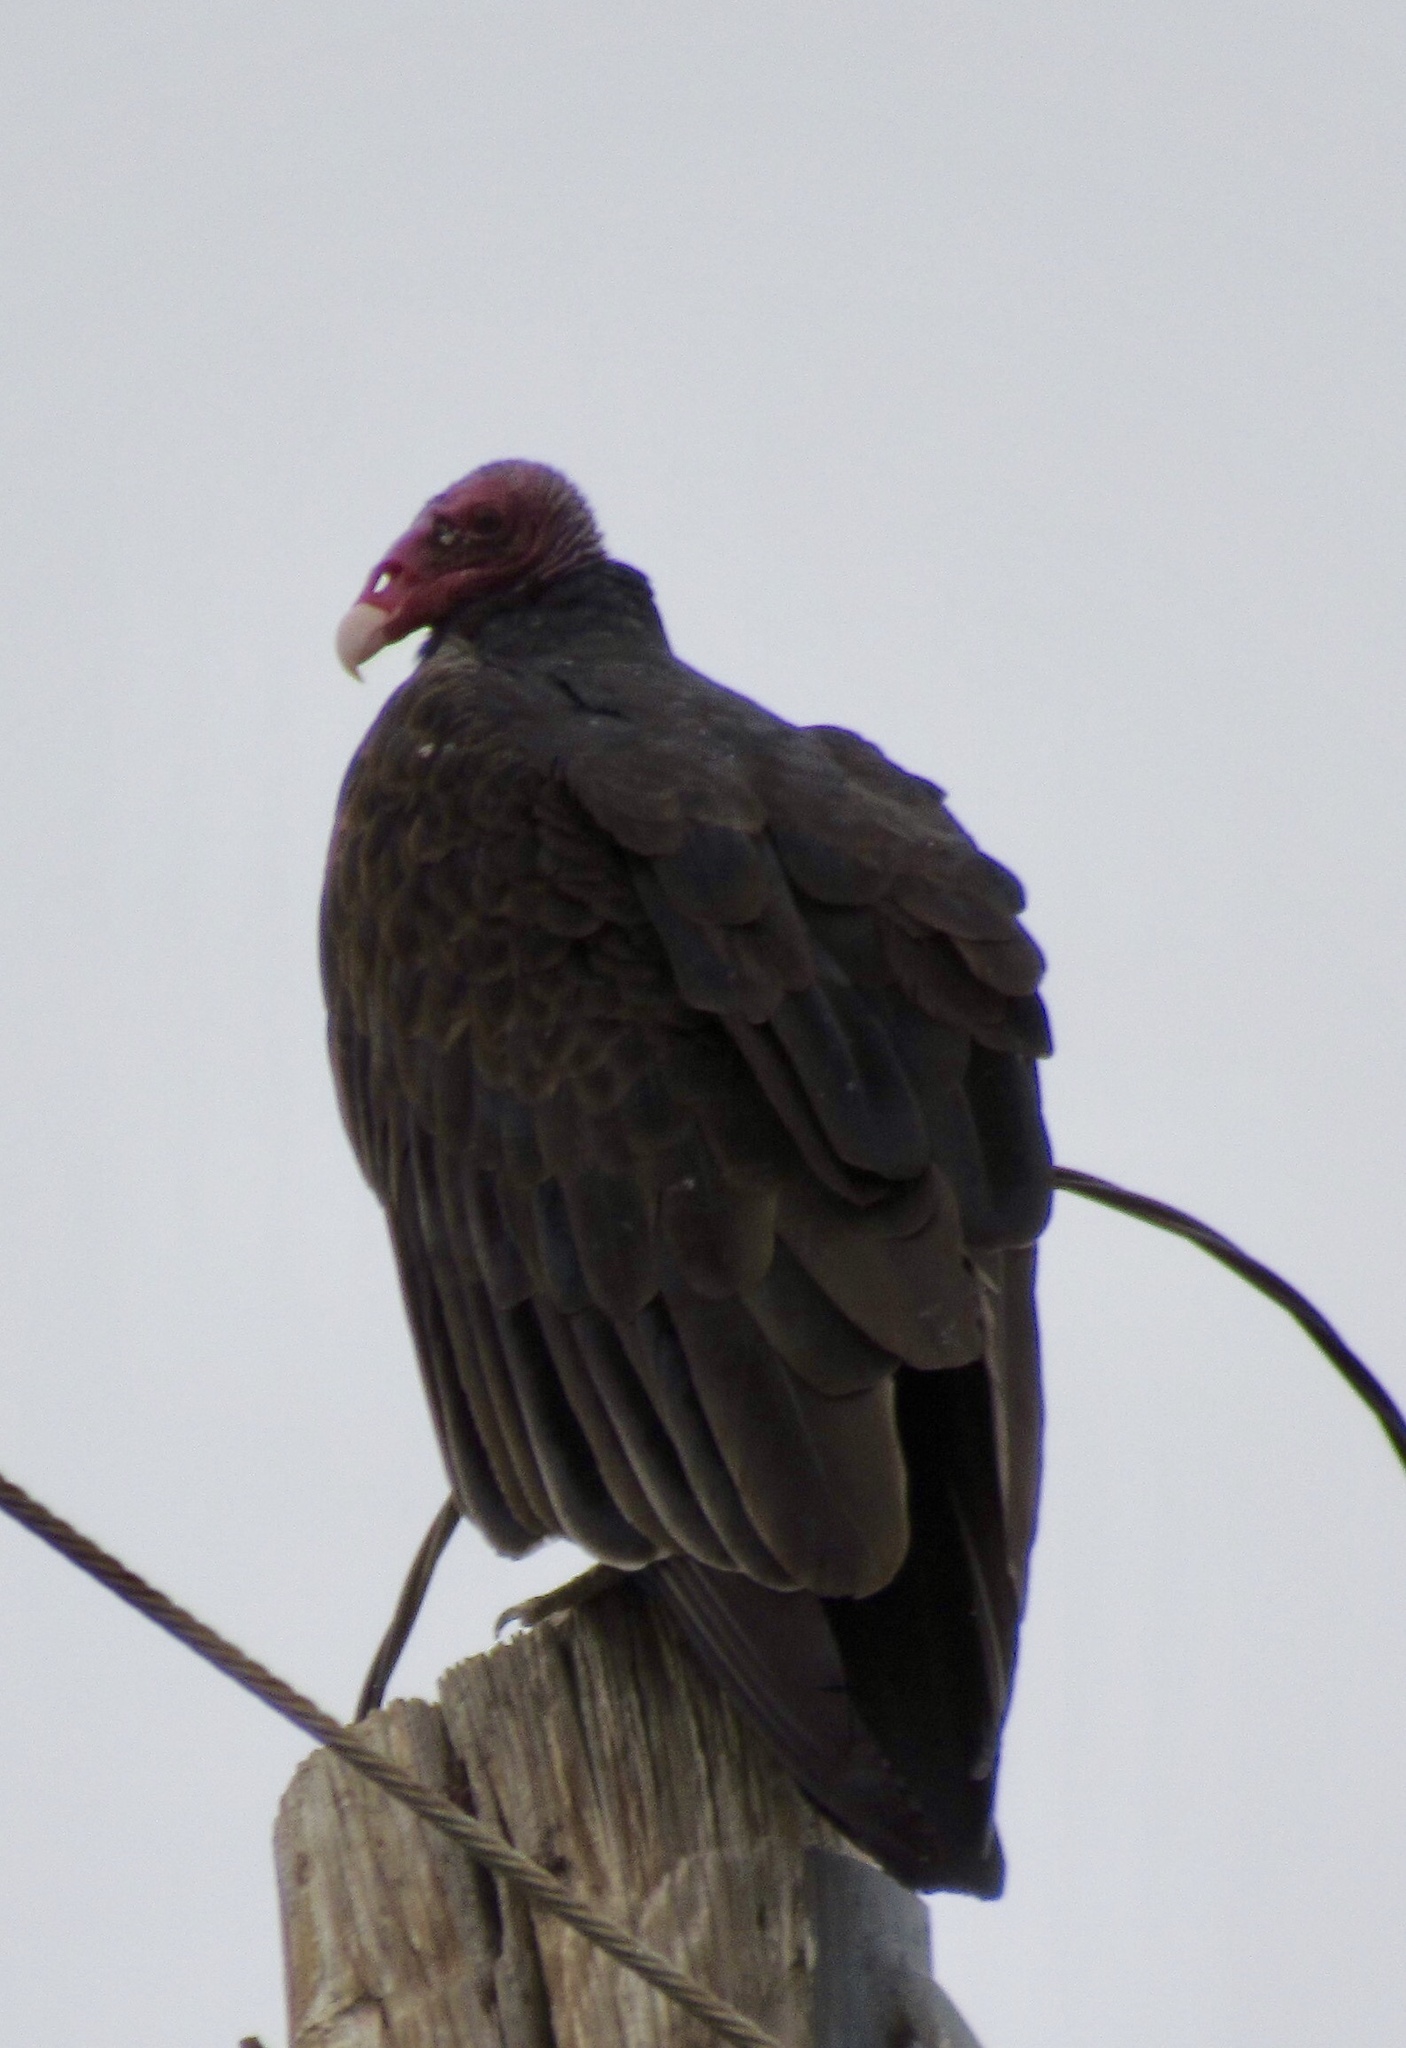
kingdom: Animalia
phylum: Chordata
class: Aves
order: Accipitriformes
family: Cathartidae
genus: Cathartes
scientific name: Cathartes aura
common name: Turkey vulture
